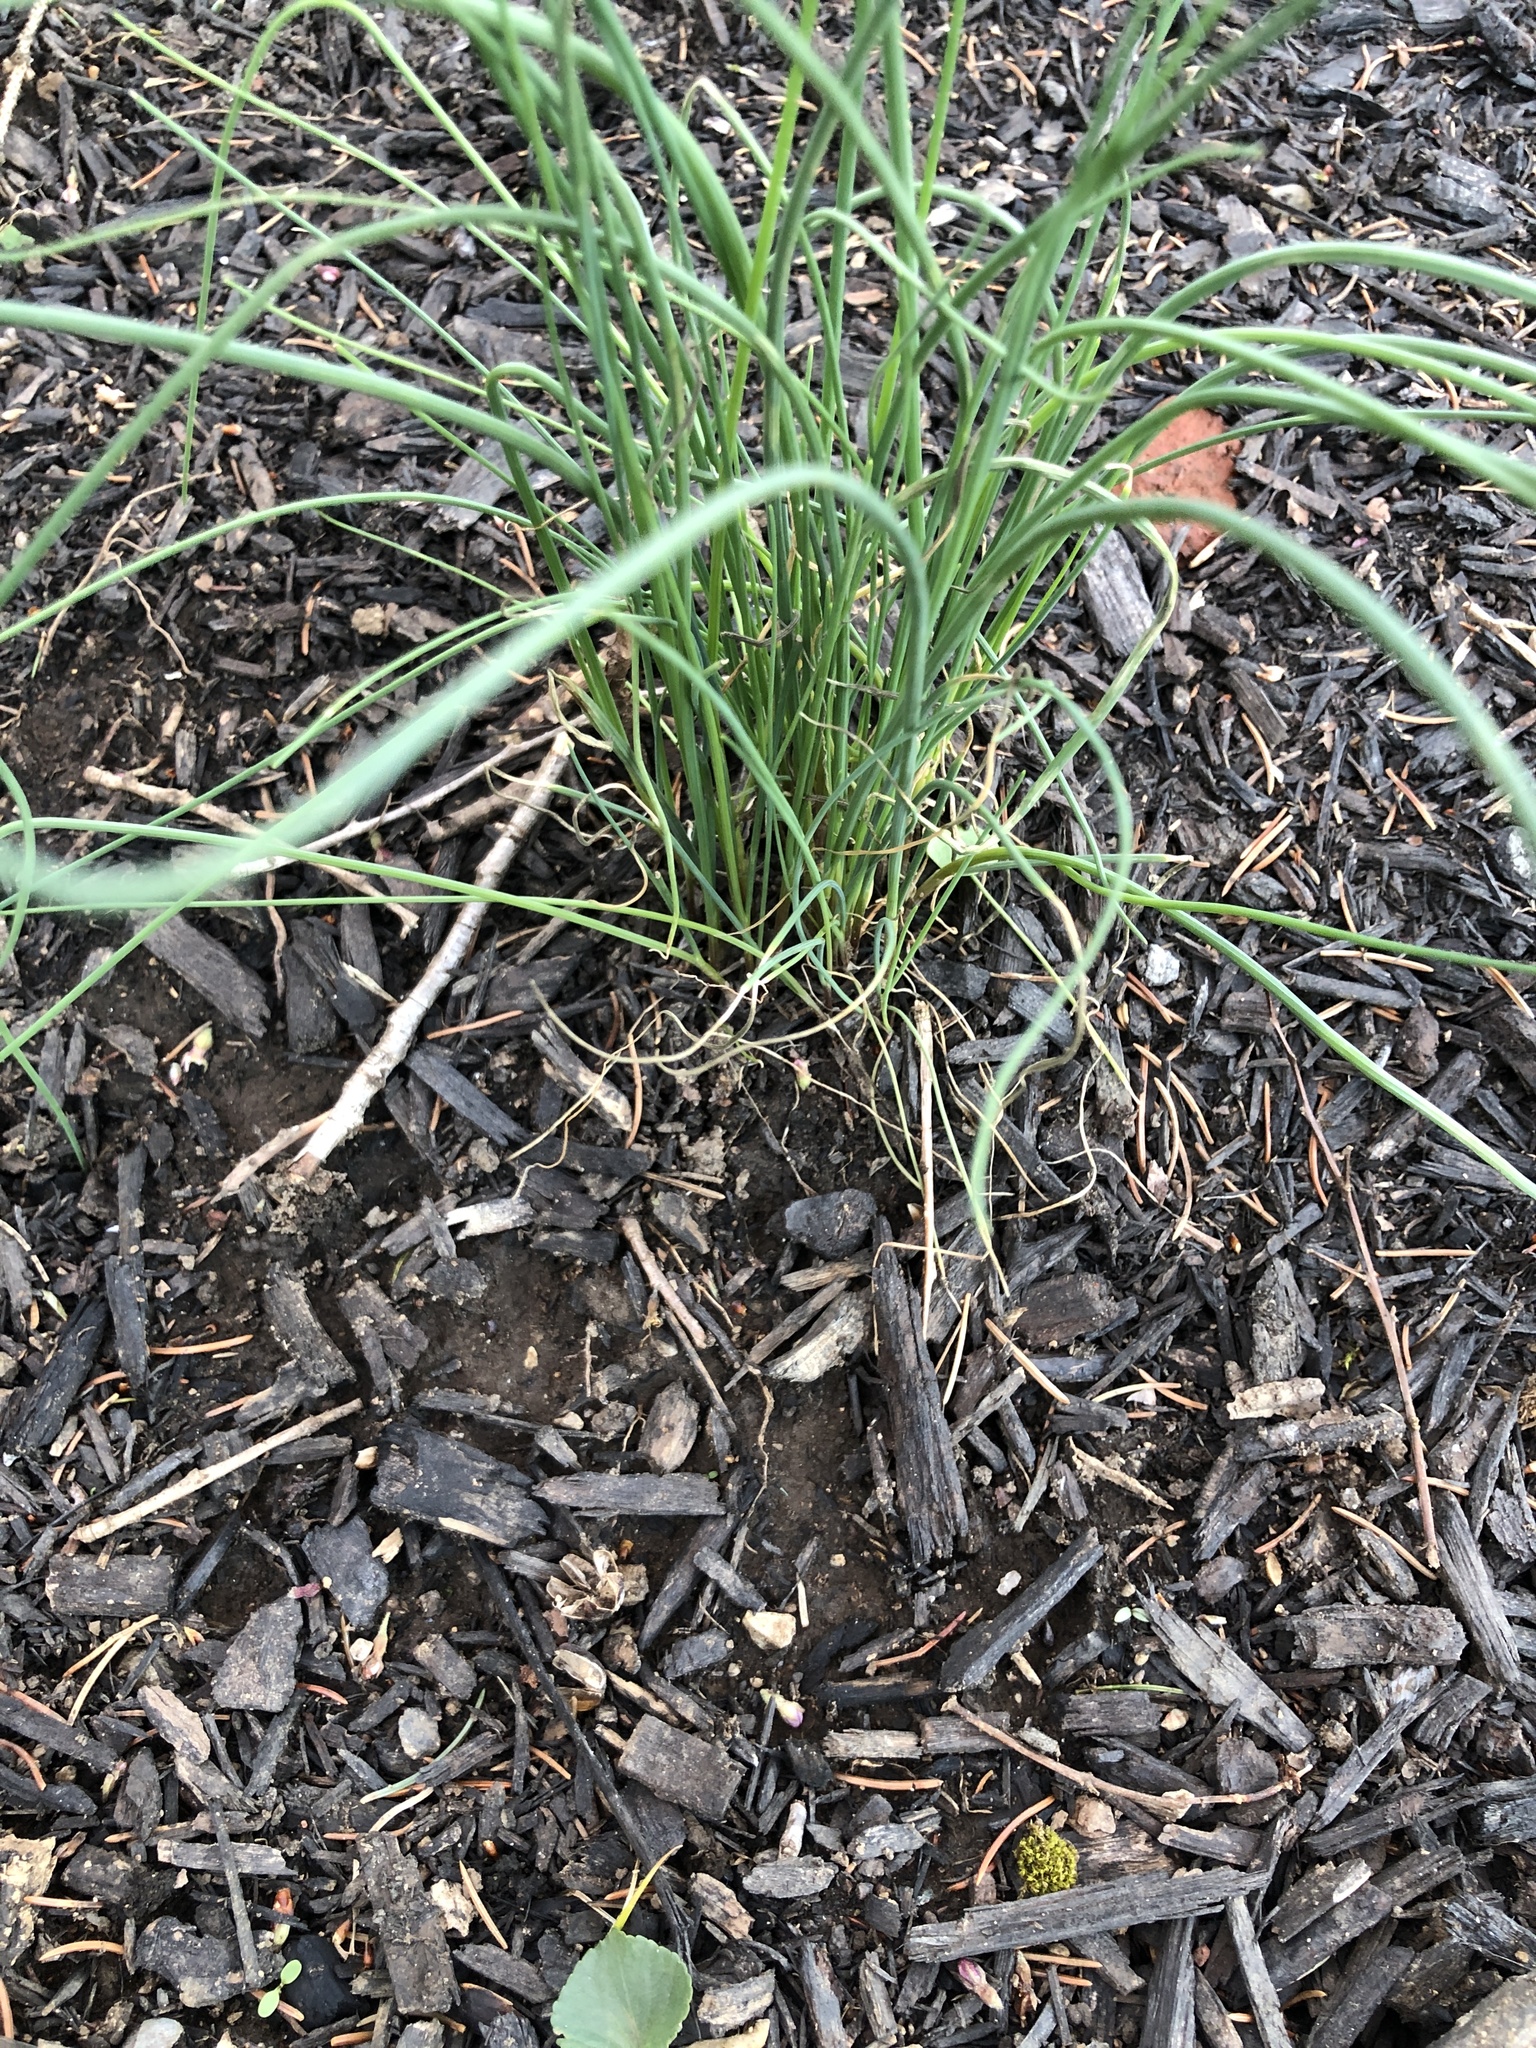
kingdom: Plantae
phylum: Tracheophyta
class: Liliopsida
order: Asparagales
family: Amaryllidaceae
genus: Allium
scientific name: Allium vineale
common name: Crow garlic
